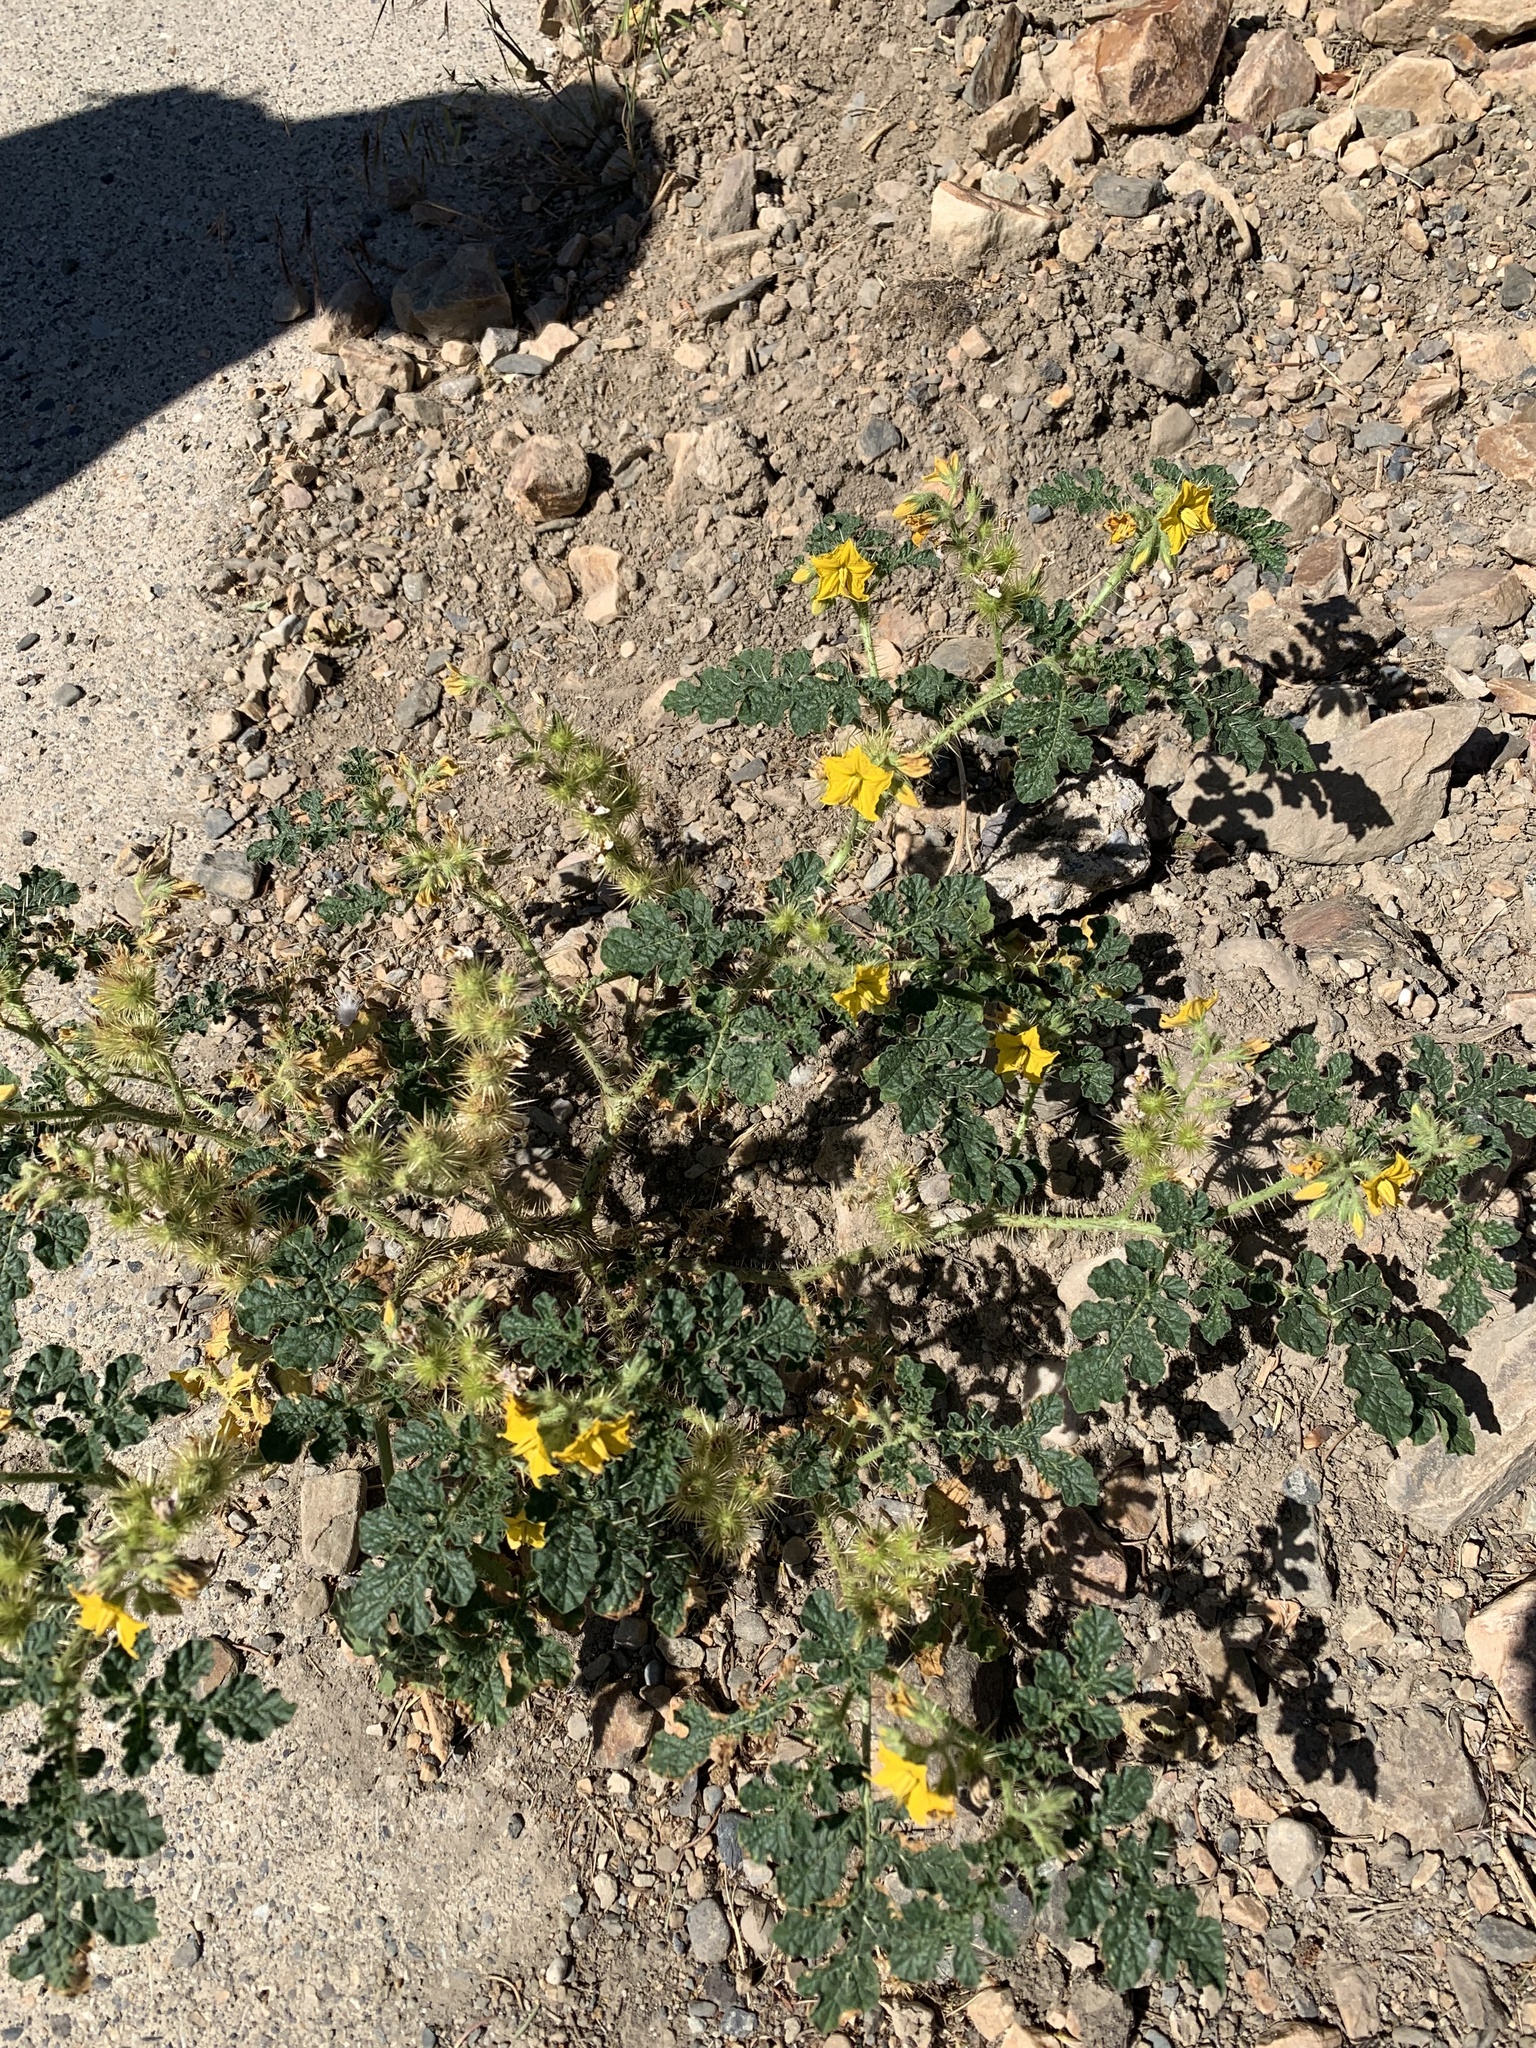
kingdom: Plantae
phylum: Tracheophyta
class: Magnoliopsida
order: Solanales
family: Solanaceae
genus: Solanum
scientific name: Solanum angustifolium
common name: Buffalobur nightshade
